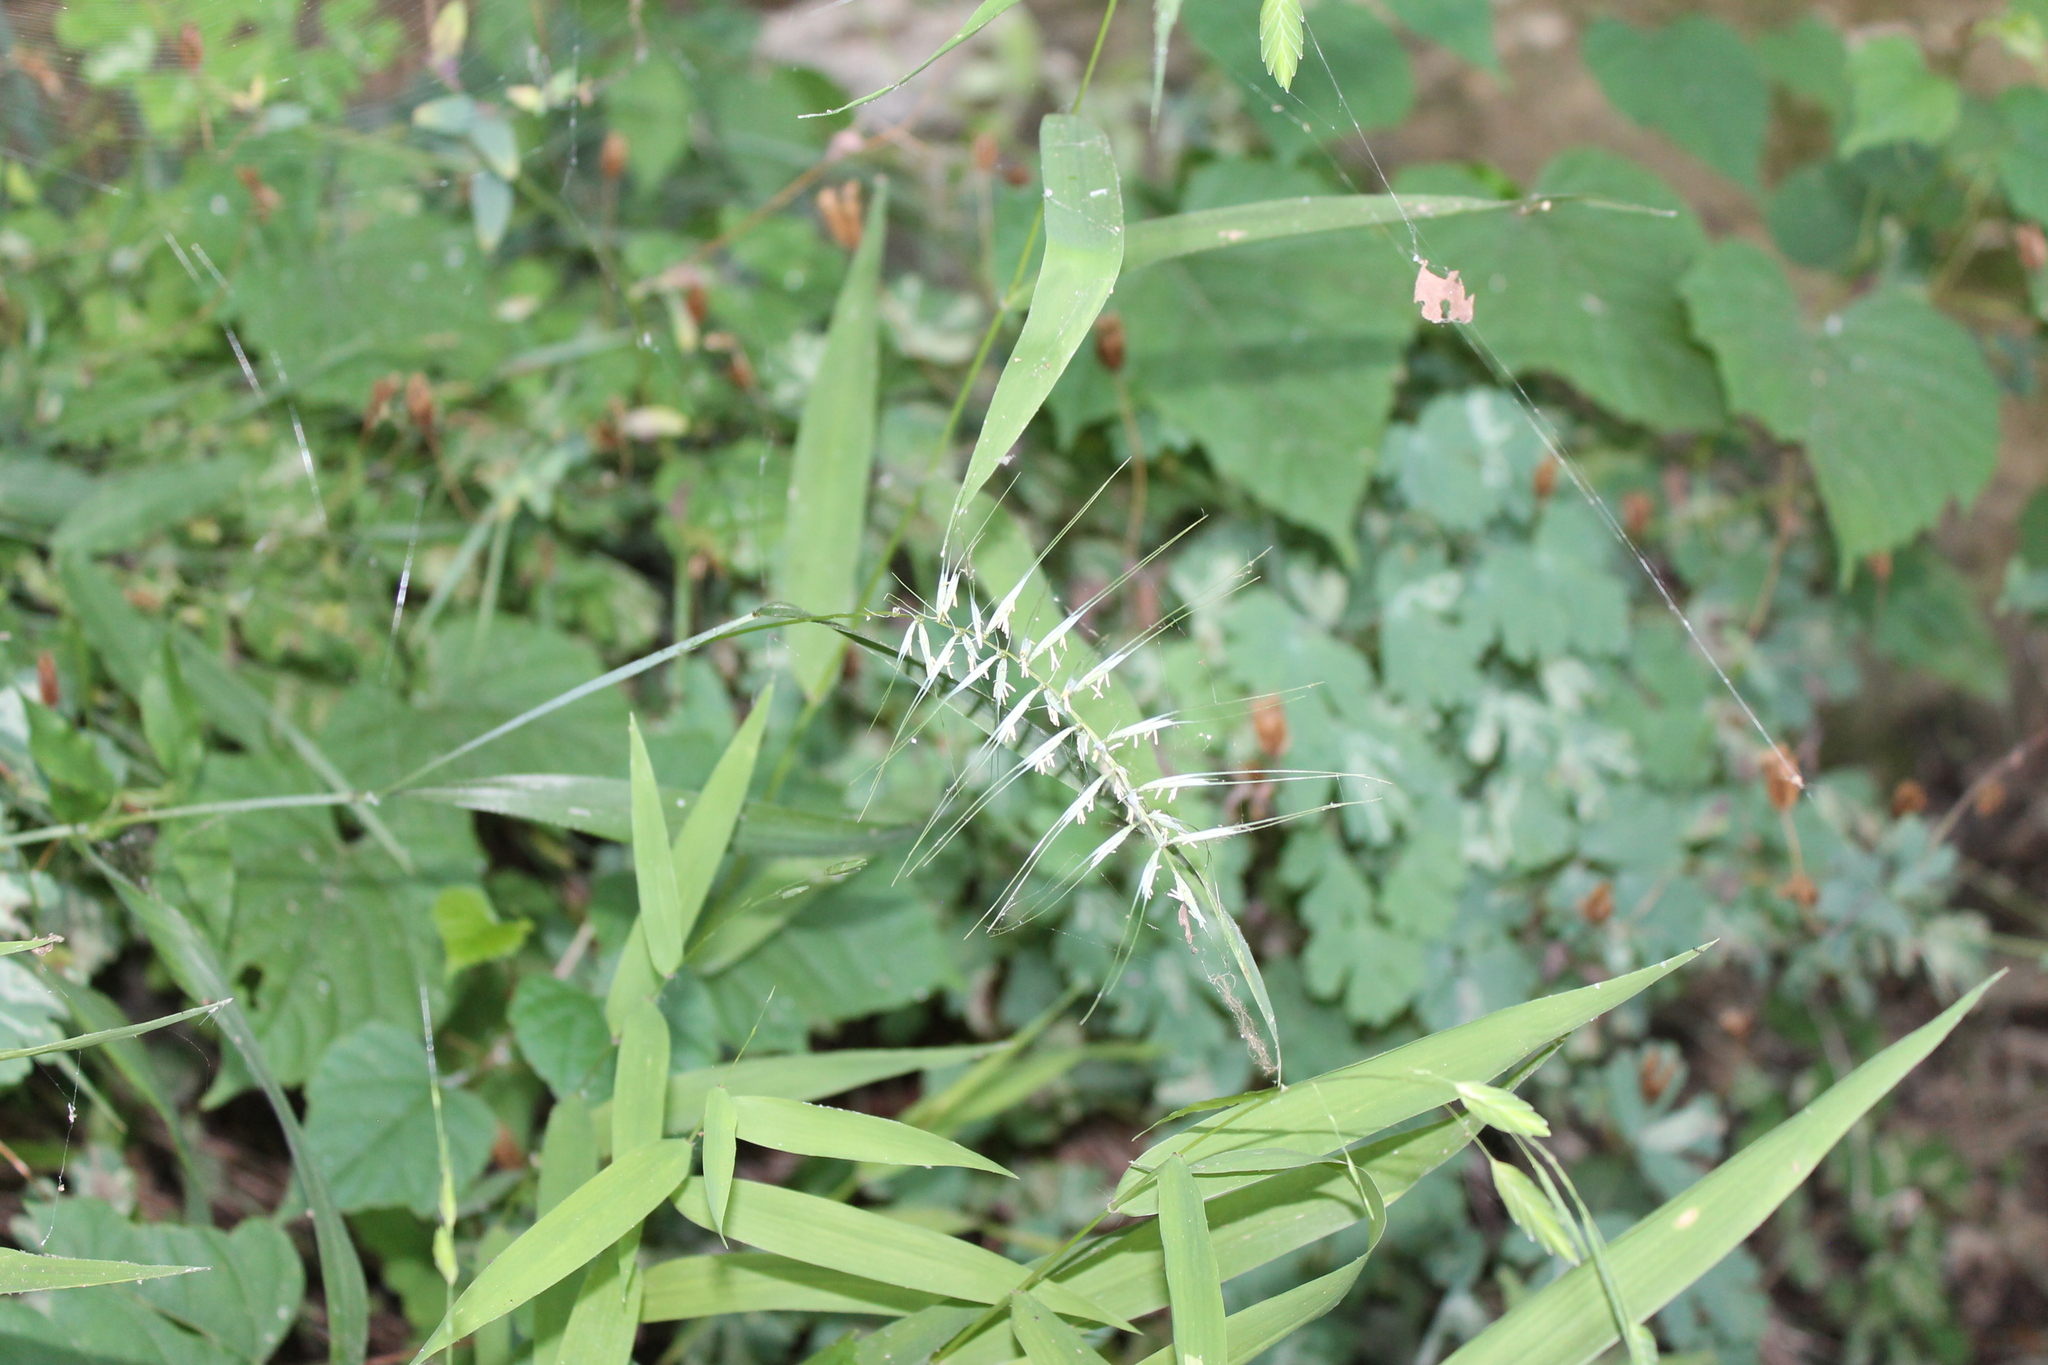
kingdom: Plantae
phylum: Tracheophyta
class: Liliopsida
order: Poales
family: Poaceae
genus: Elymus
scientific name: Elymus hystrix
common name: Bottlebrush grass
